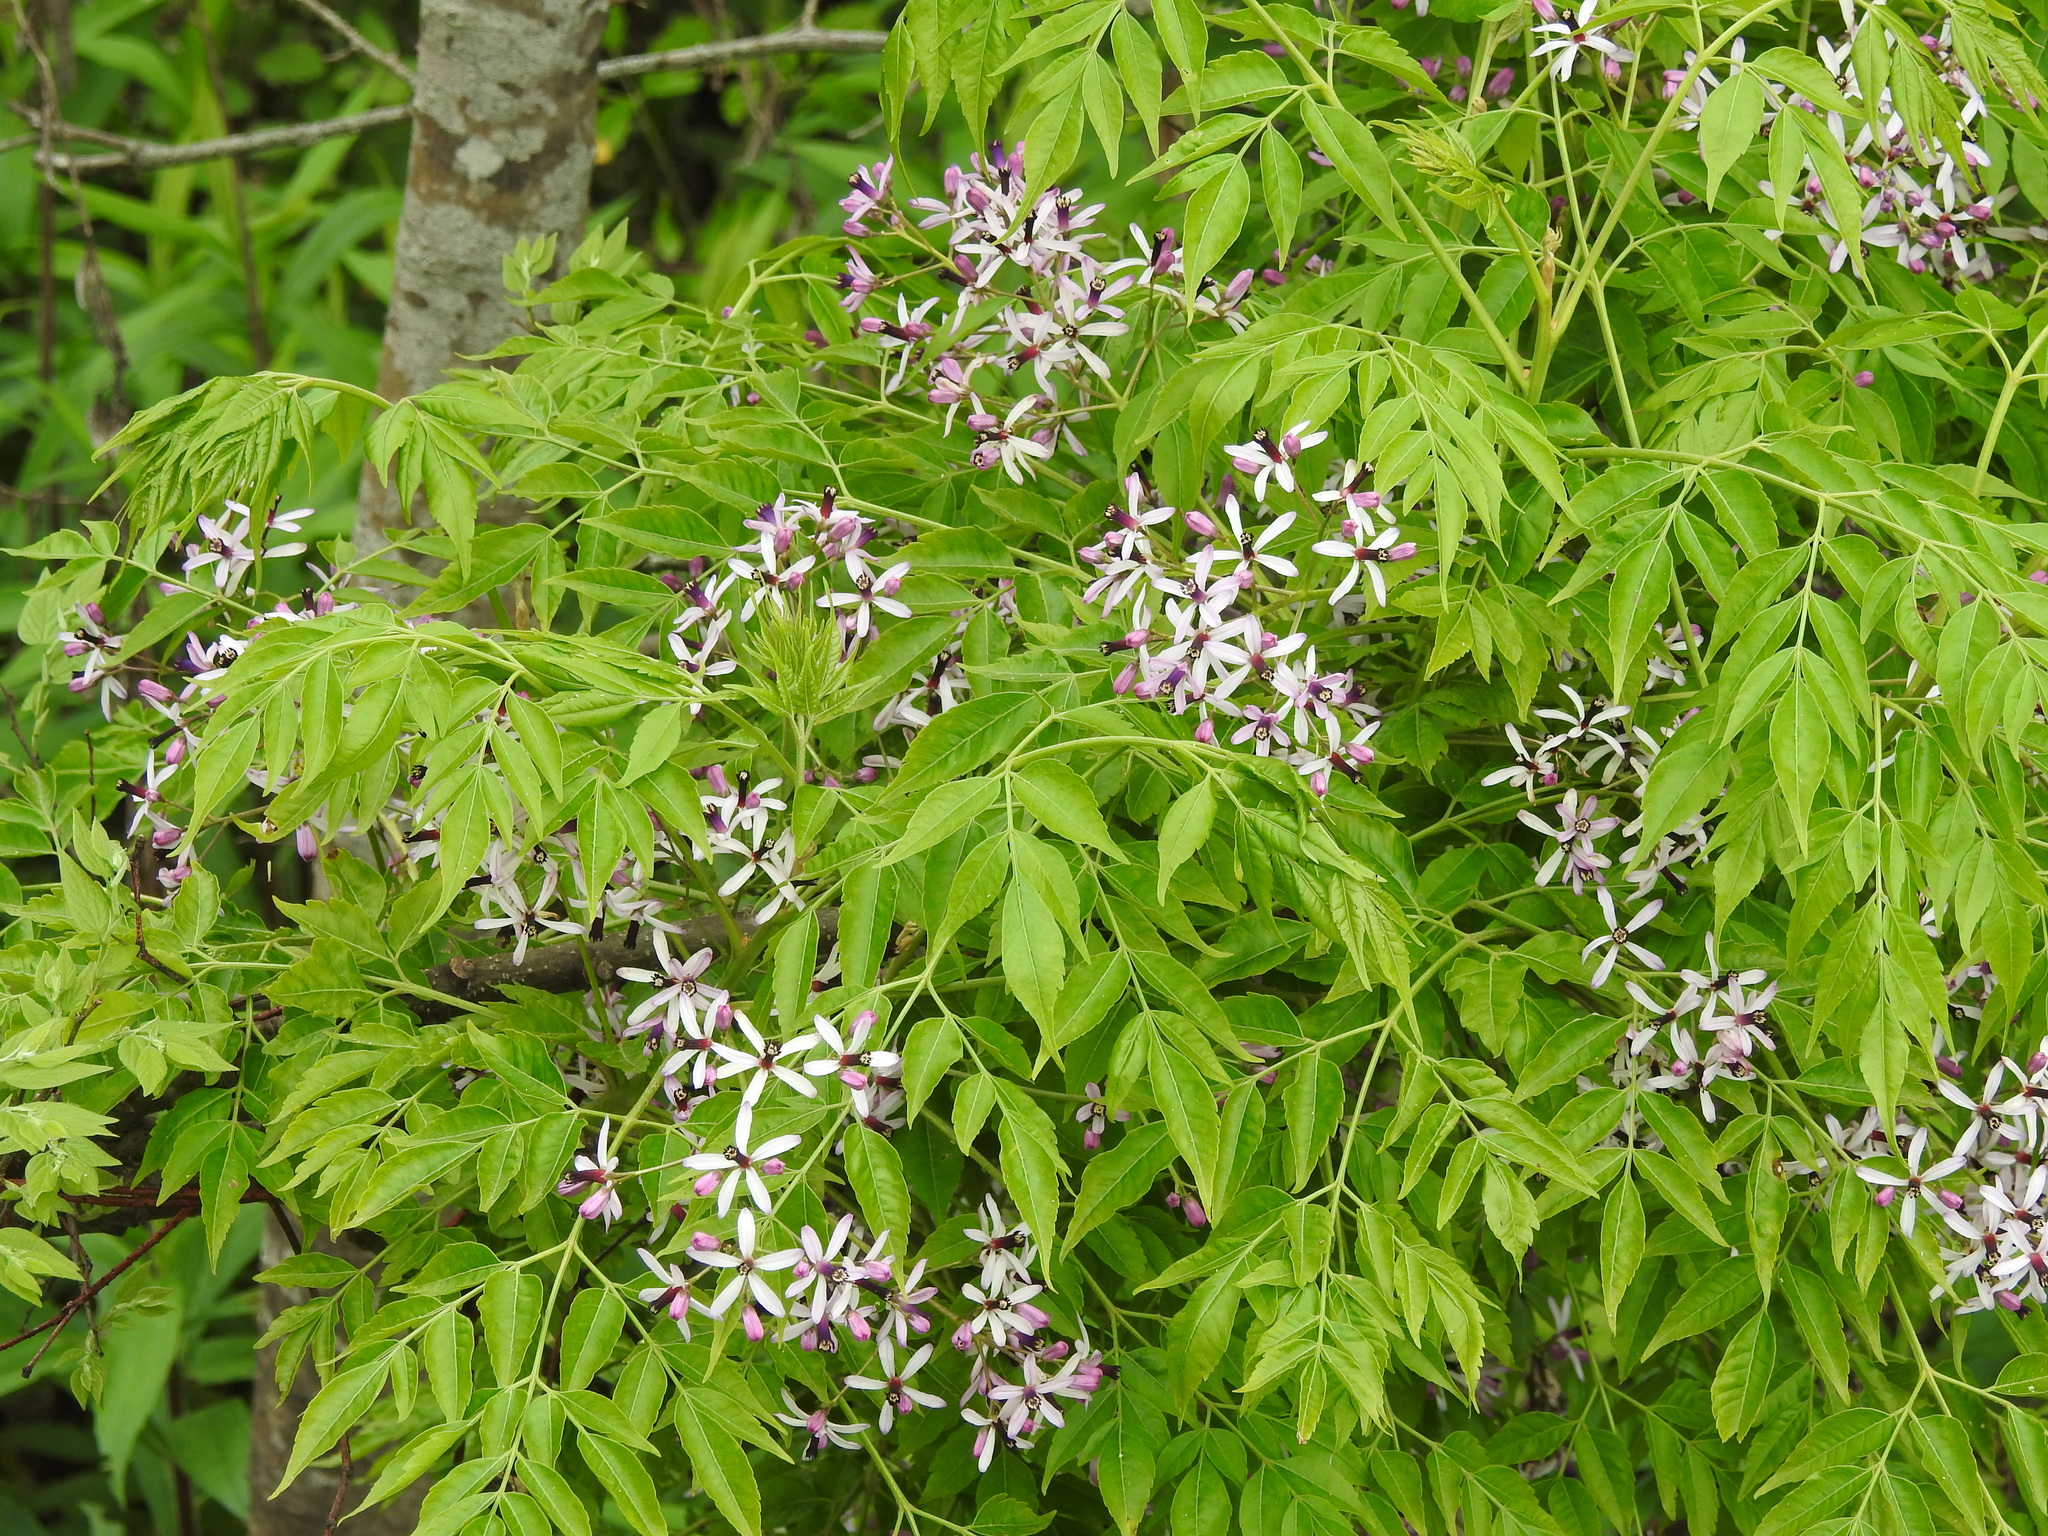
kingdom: Plantae
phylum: Tracheophyta
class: Magnoliopsida
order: Sapindales
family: Meliaceae
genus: Melia
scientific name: Melia azedarach
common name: Chinaberrytree
